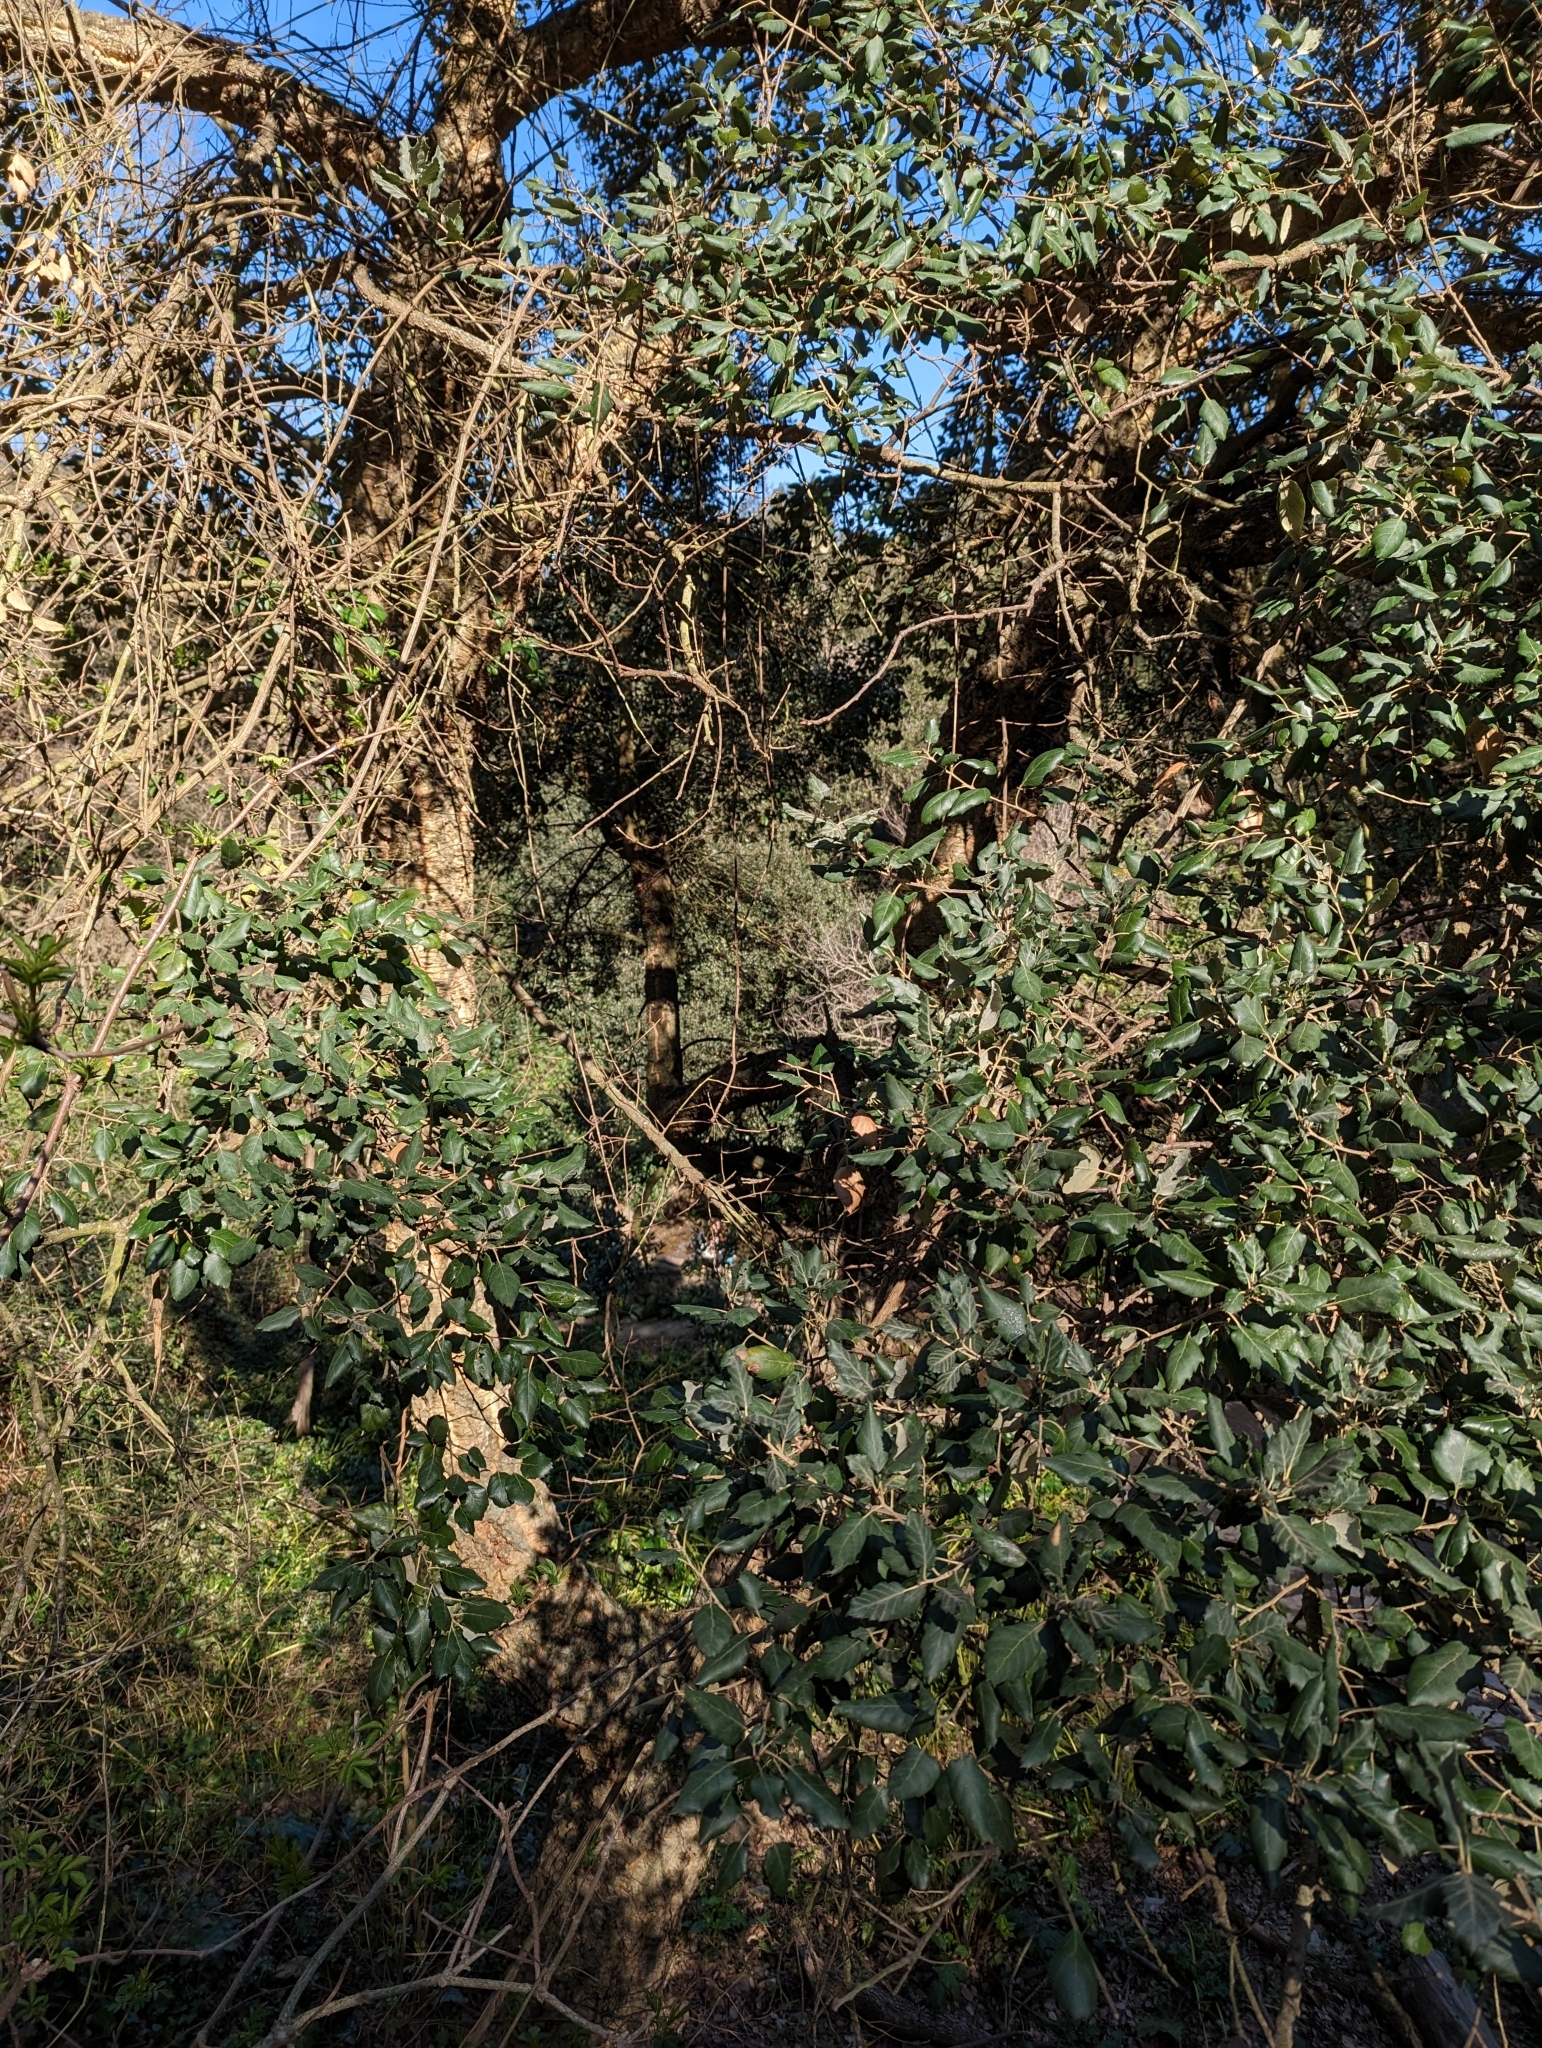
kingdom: Plantae
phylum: Tracheophyta
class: Magnoliopsida
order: Fagales
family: Fagaceae
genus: Quercus
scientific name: Quercus suber
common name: Cork oak
